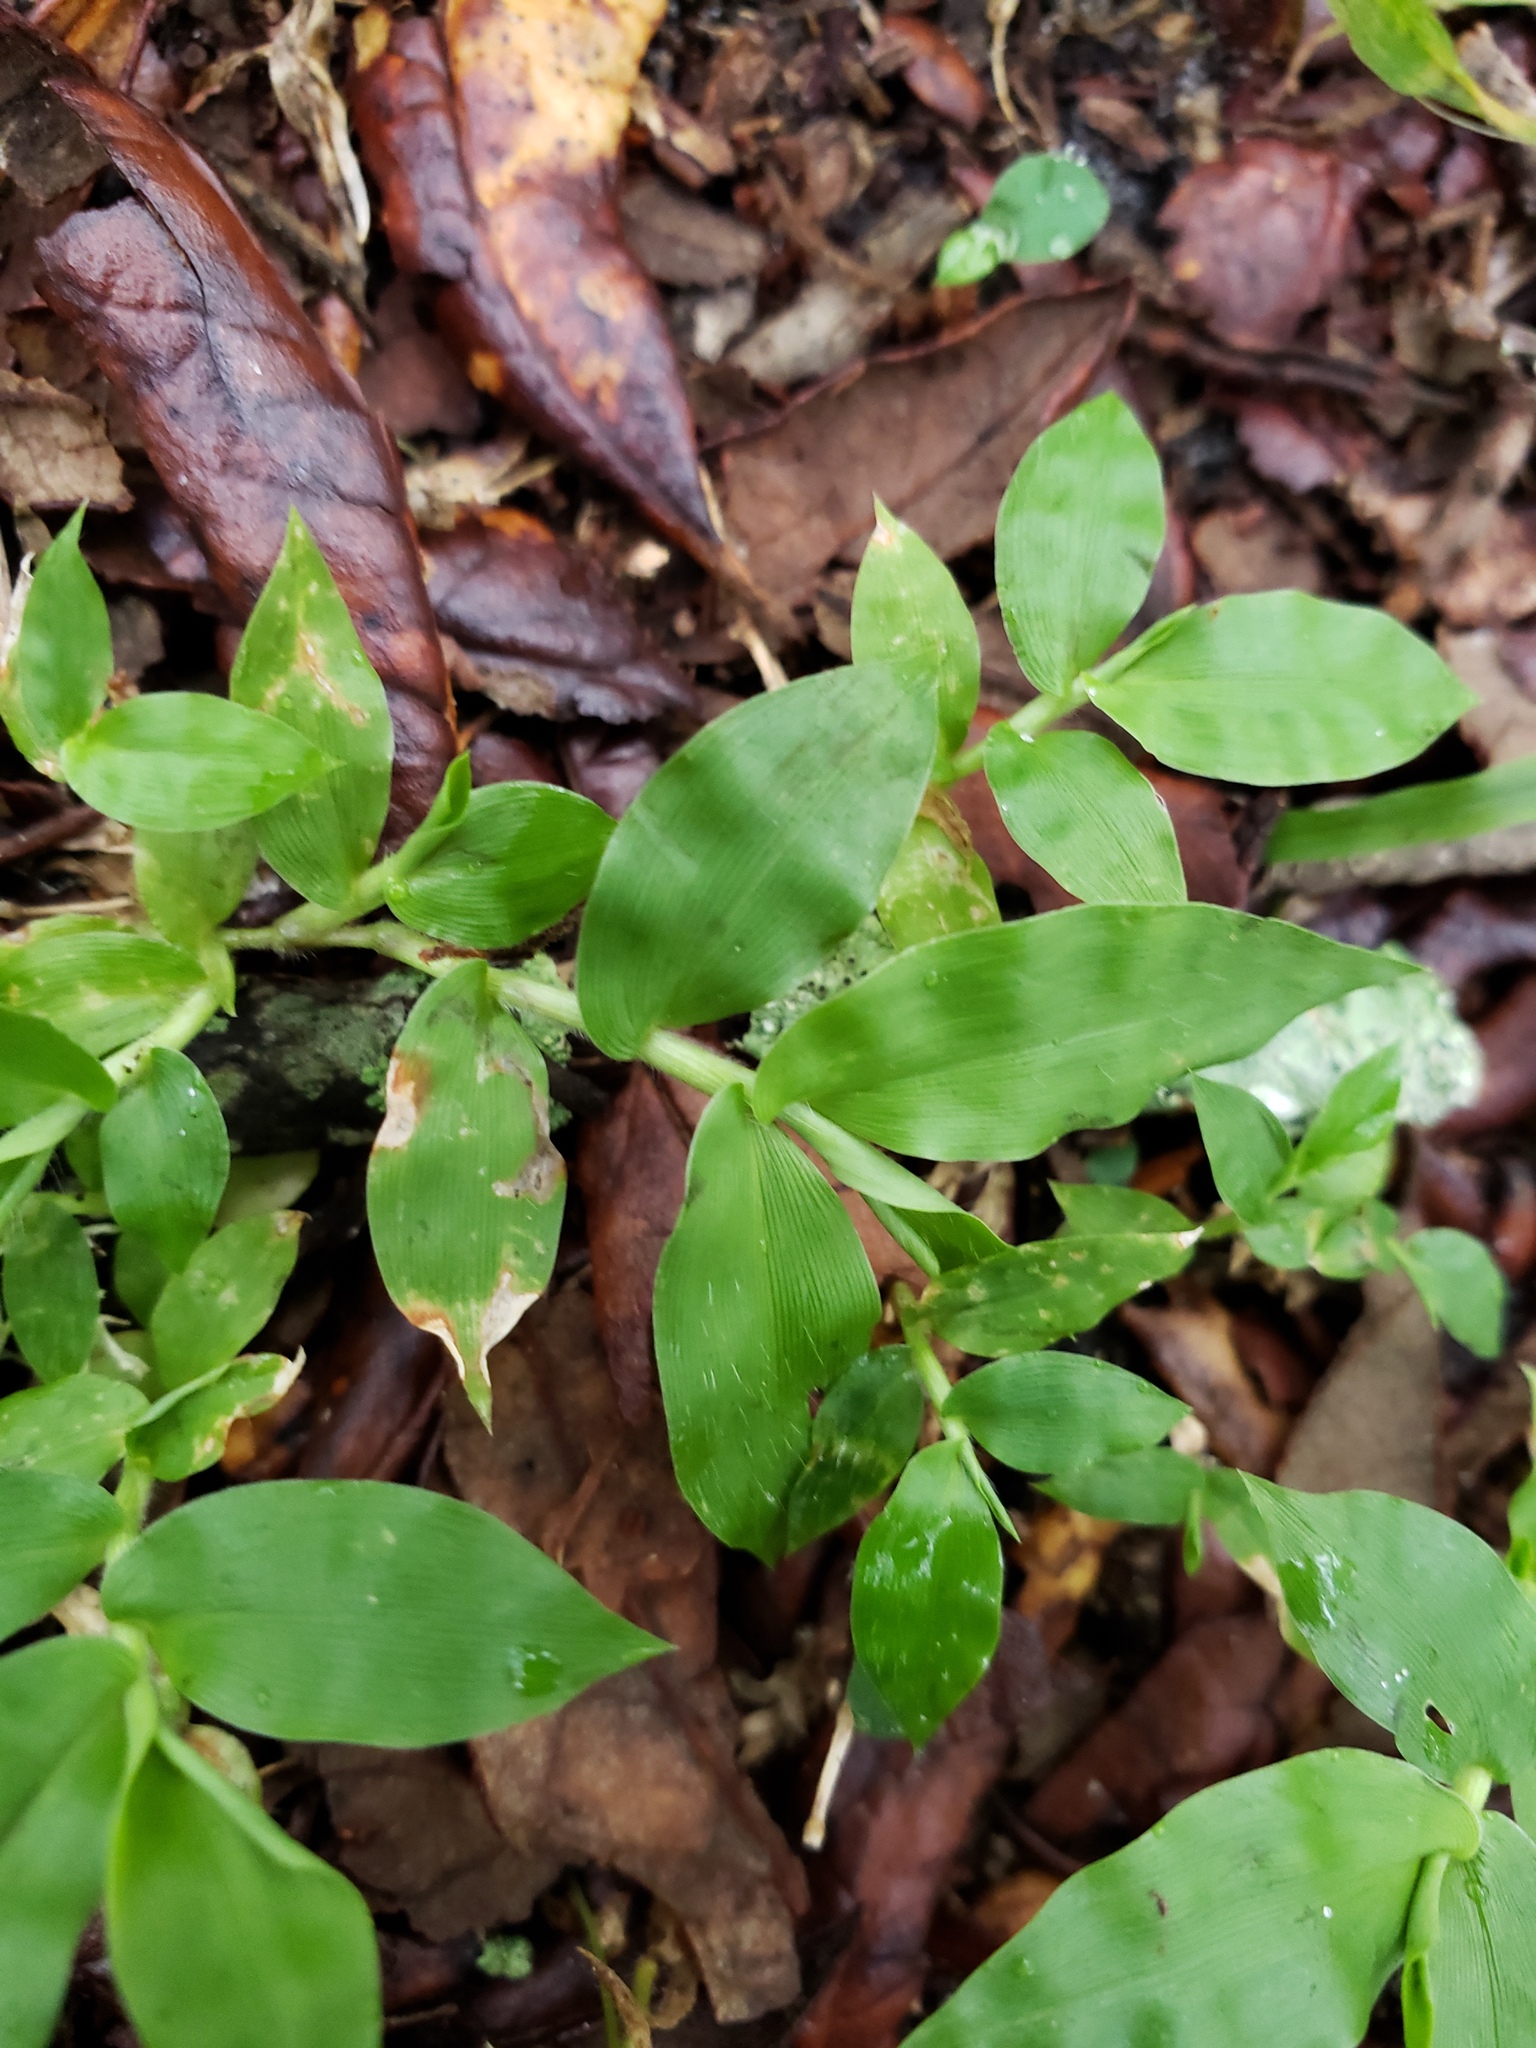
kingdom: Plantae
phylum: Tracheophyta
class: Liliopsida
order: Poales
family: Poaceae
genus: Oplismenus
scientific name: Oplismenus burmanni
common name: Burmann's basketgrass
